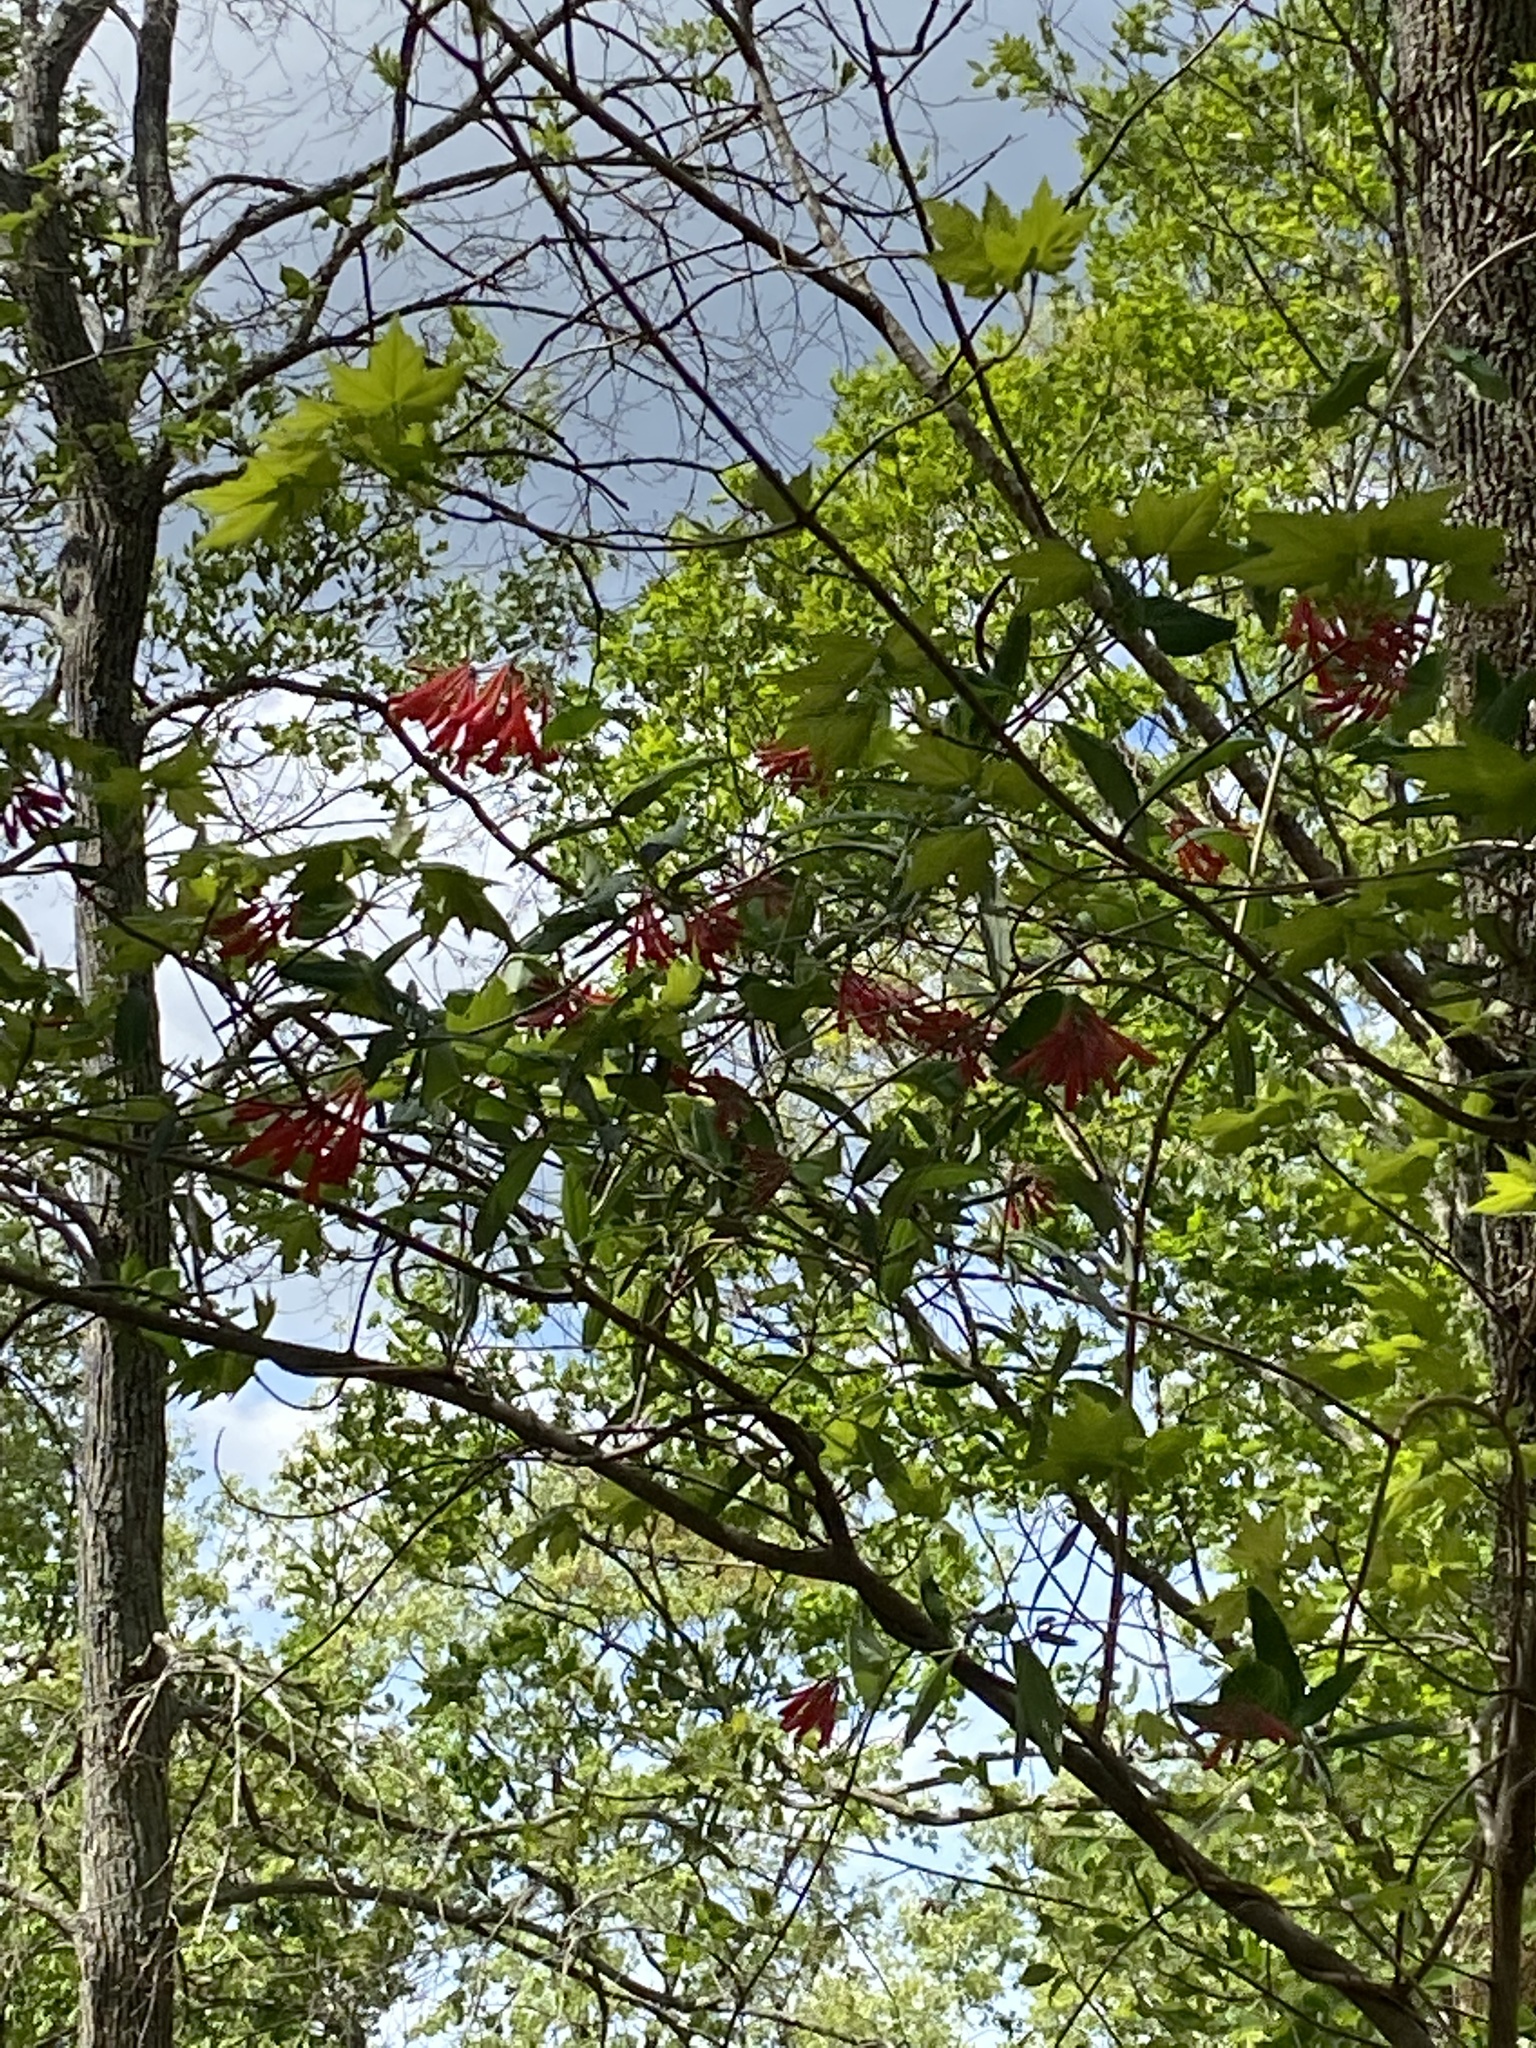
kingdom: Plantae
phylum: Tracheophyta
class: Magnoliopsida
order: Dipsacales
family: Caprifoliaceae
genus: Lonicera
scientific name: Lonicera sempervirens
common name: Coral honeysuckle
